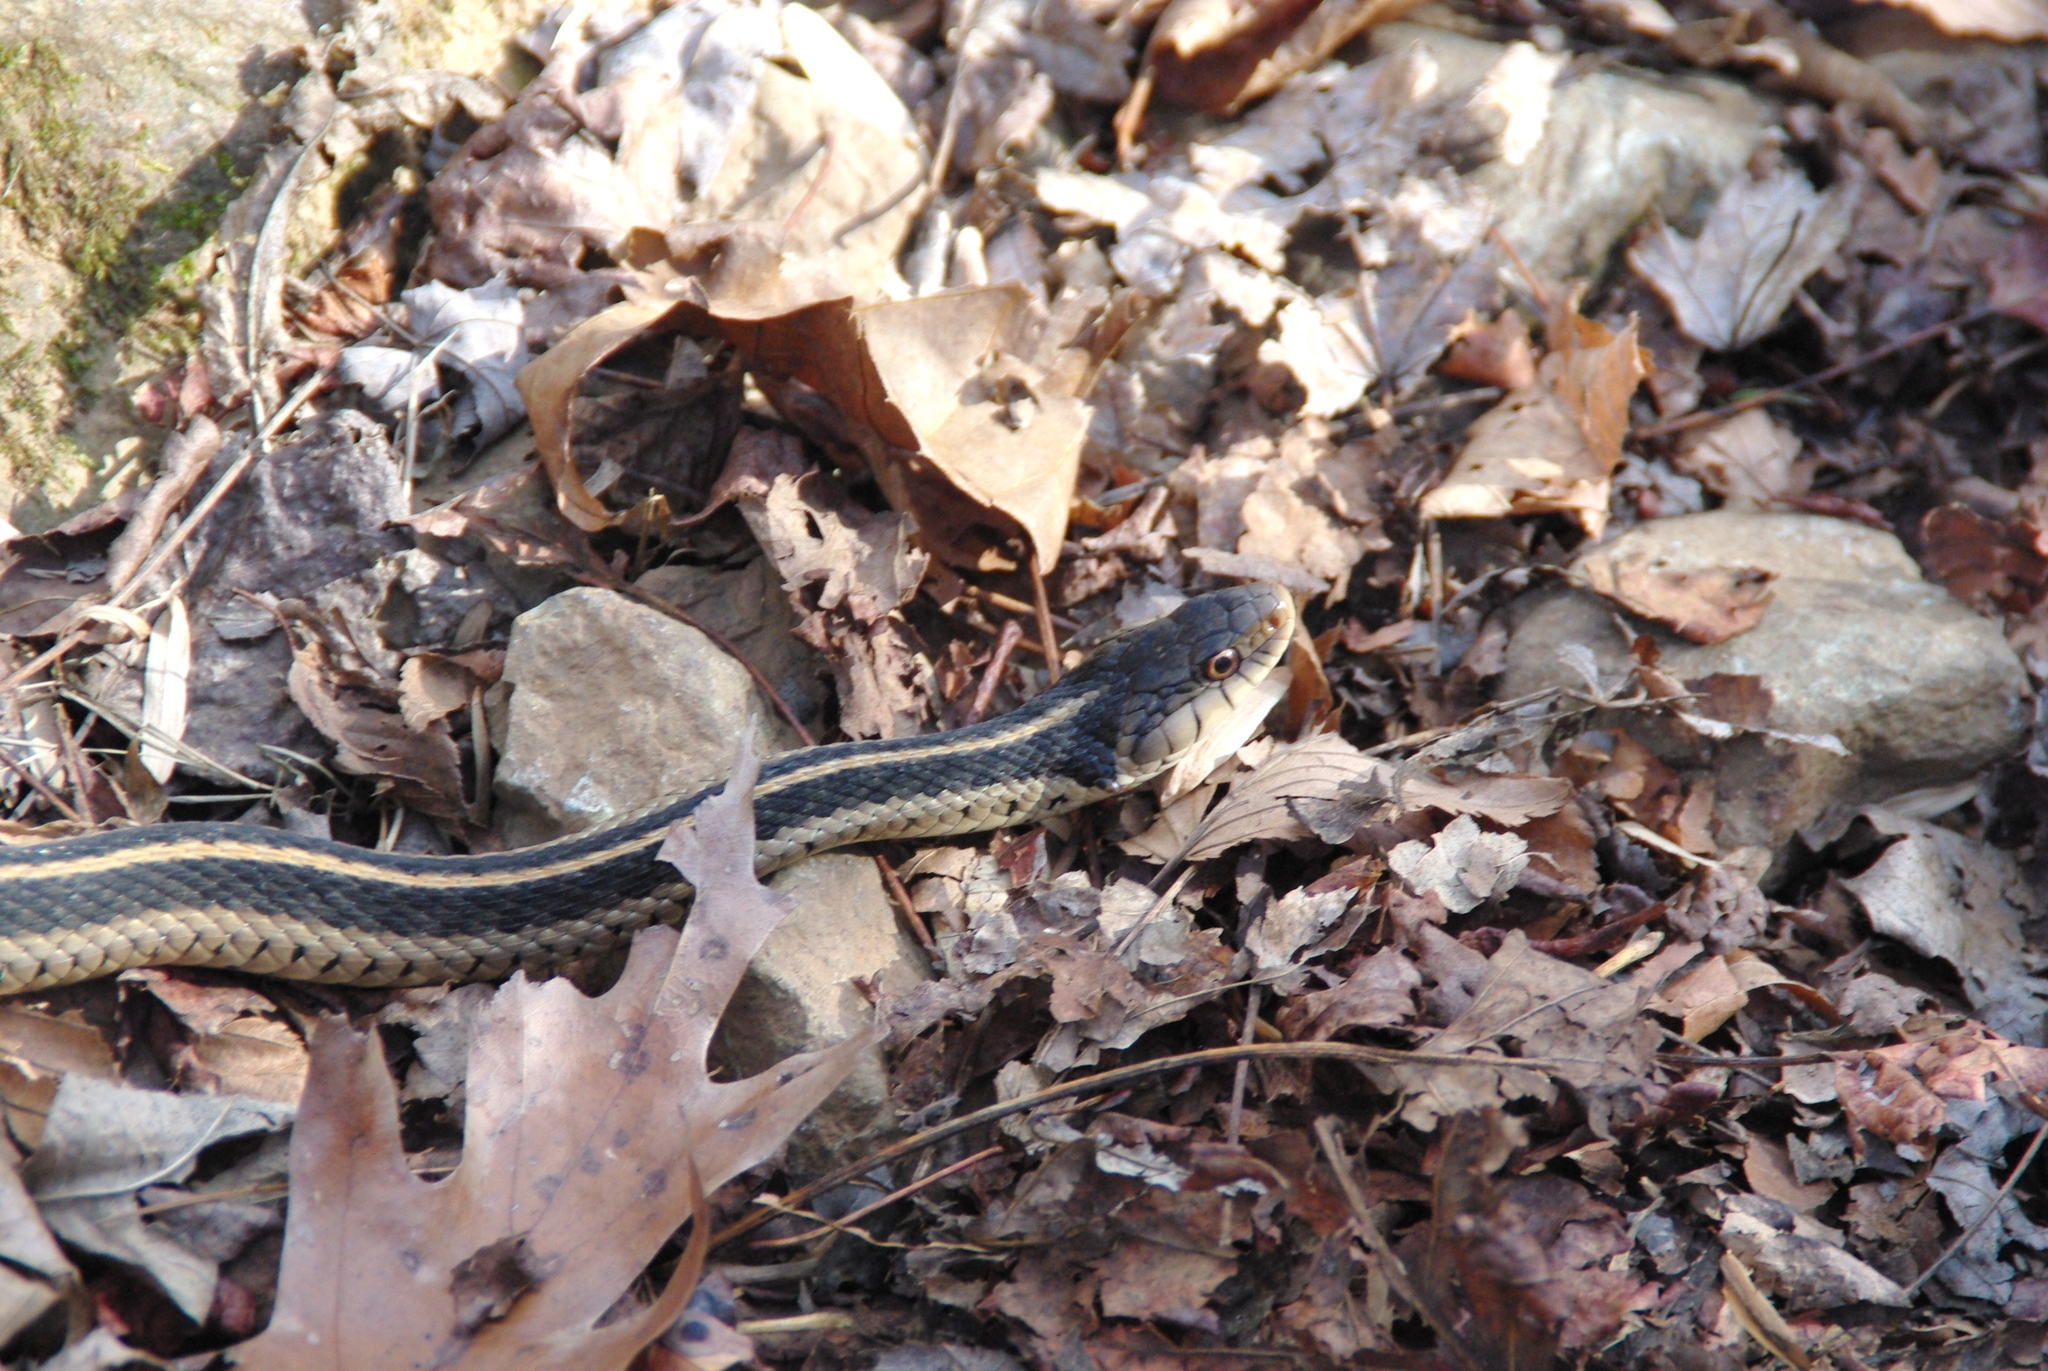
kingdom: Animalia
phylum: Chordata
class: Squamata
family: Colubridae
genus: Thamnophis
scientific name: Thamnophis sirtalis
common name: Common garter snake
